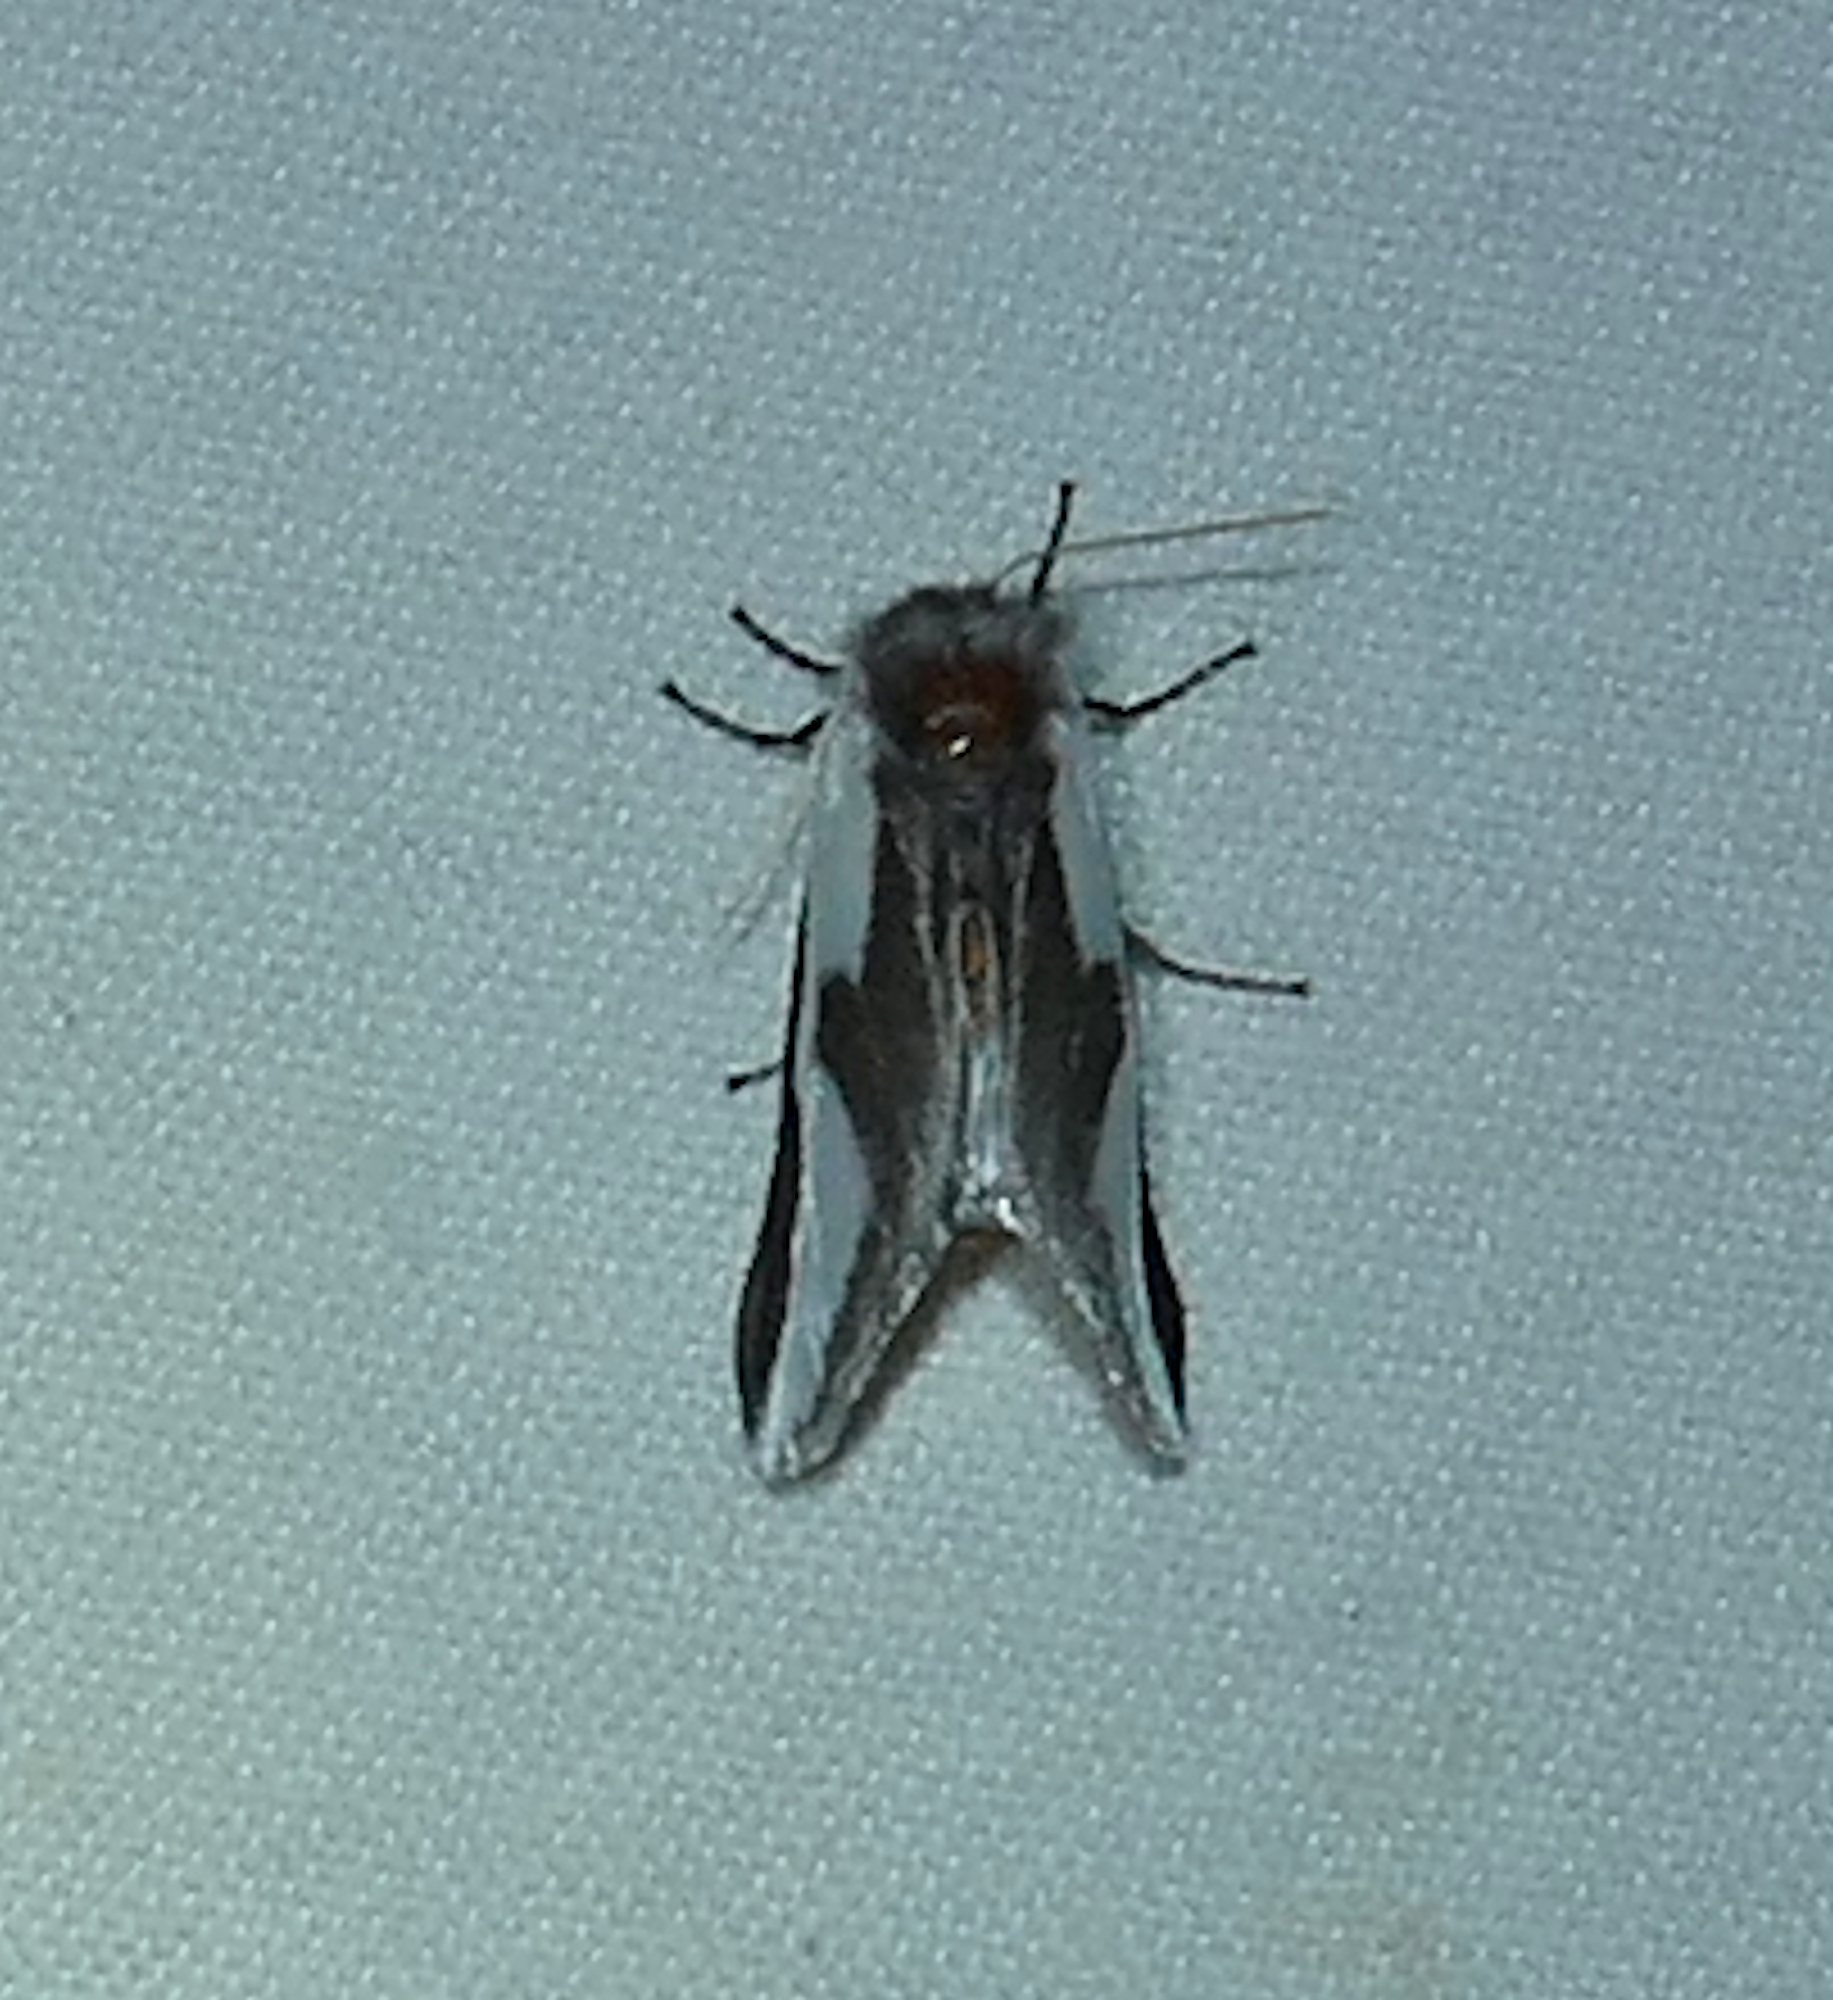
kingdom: Animalia
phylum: Arthropoda
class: Insecta
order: Lepidoptera
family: Megalopygidae
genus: Norape
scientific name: Norape tener
